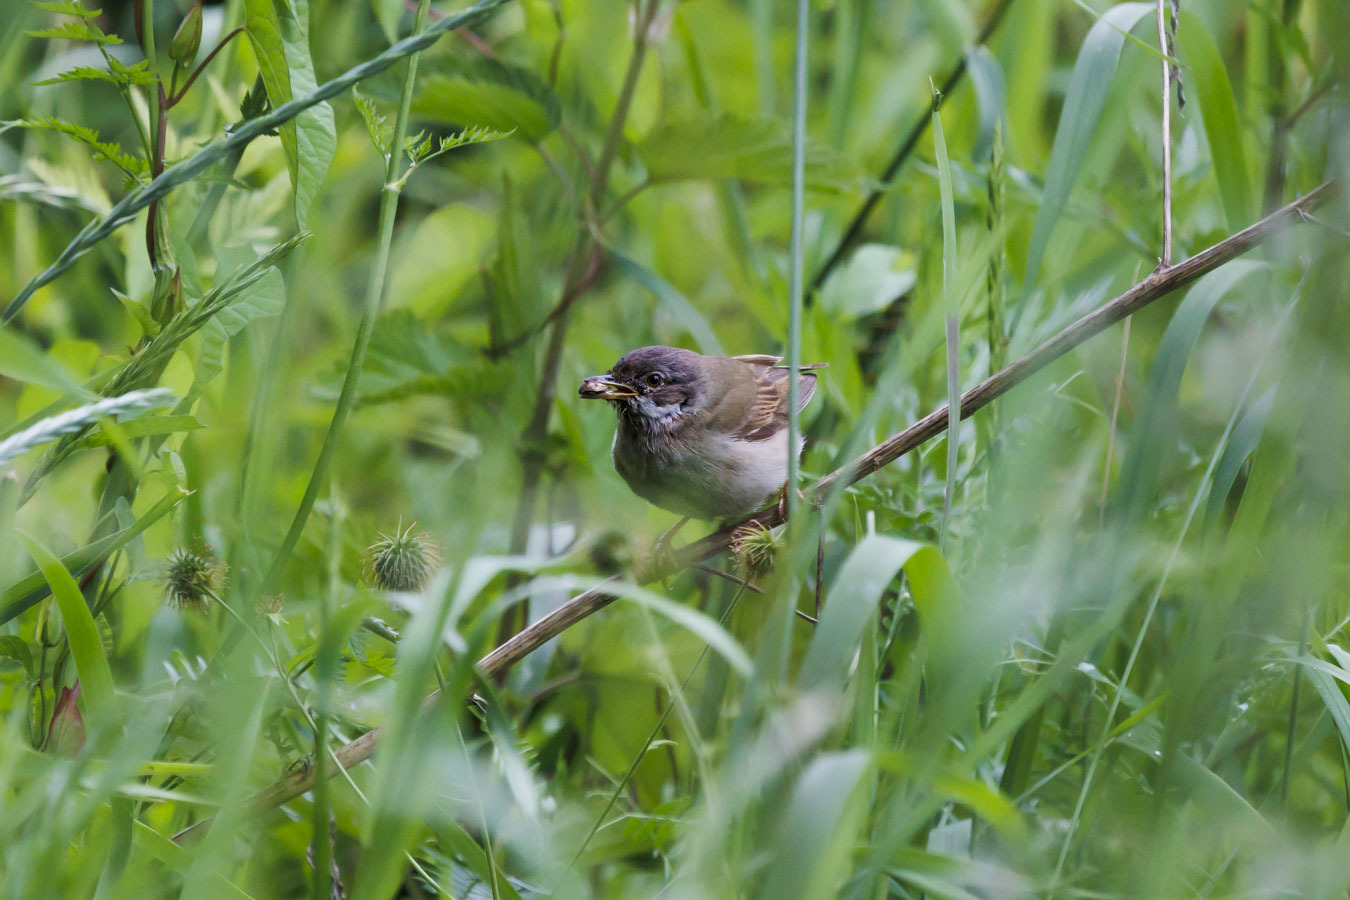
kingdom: Animalia
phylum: Chordata
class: Aves
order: Passeriformes
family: Sylviidae
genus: Sylvia
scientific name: Sylvia communis
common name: Common whitethroat
